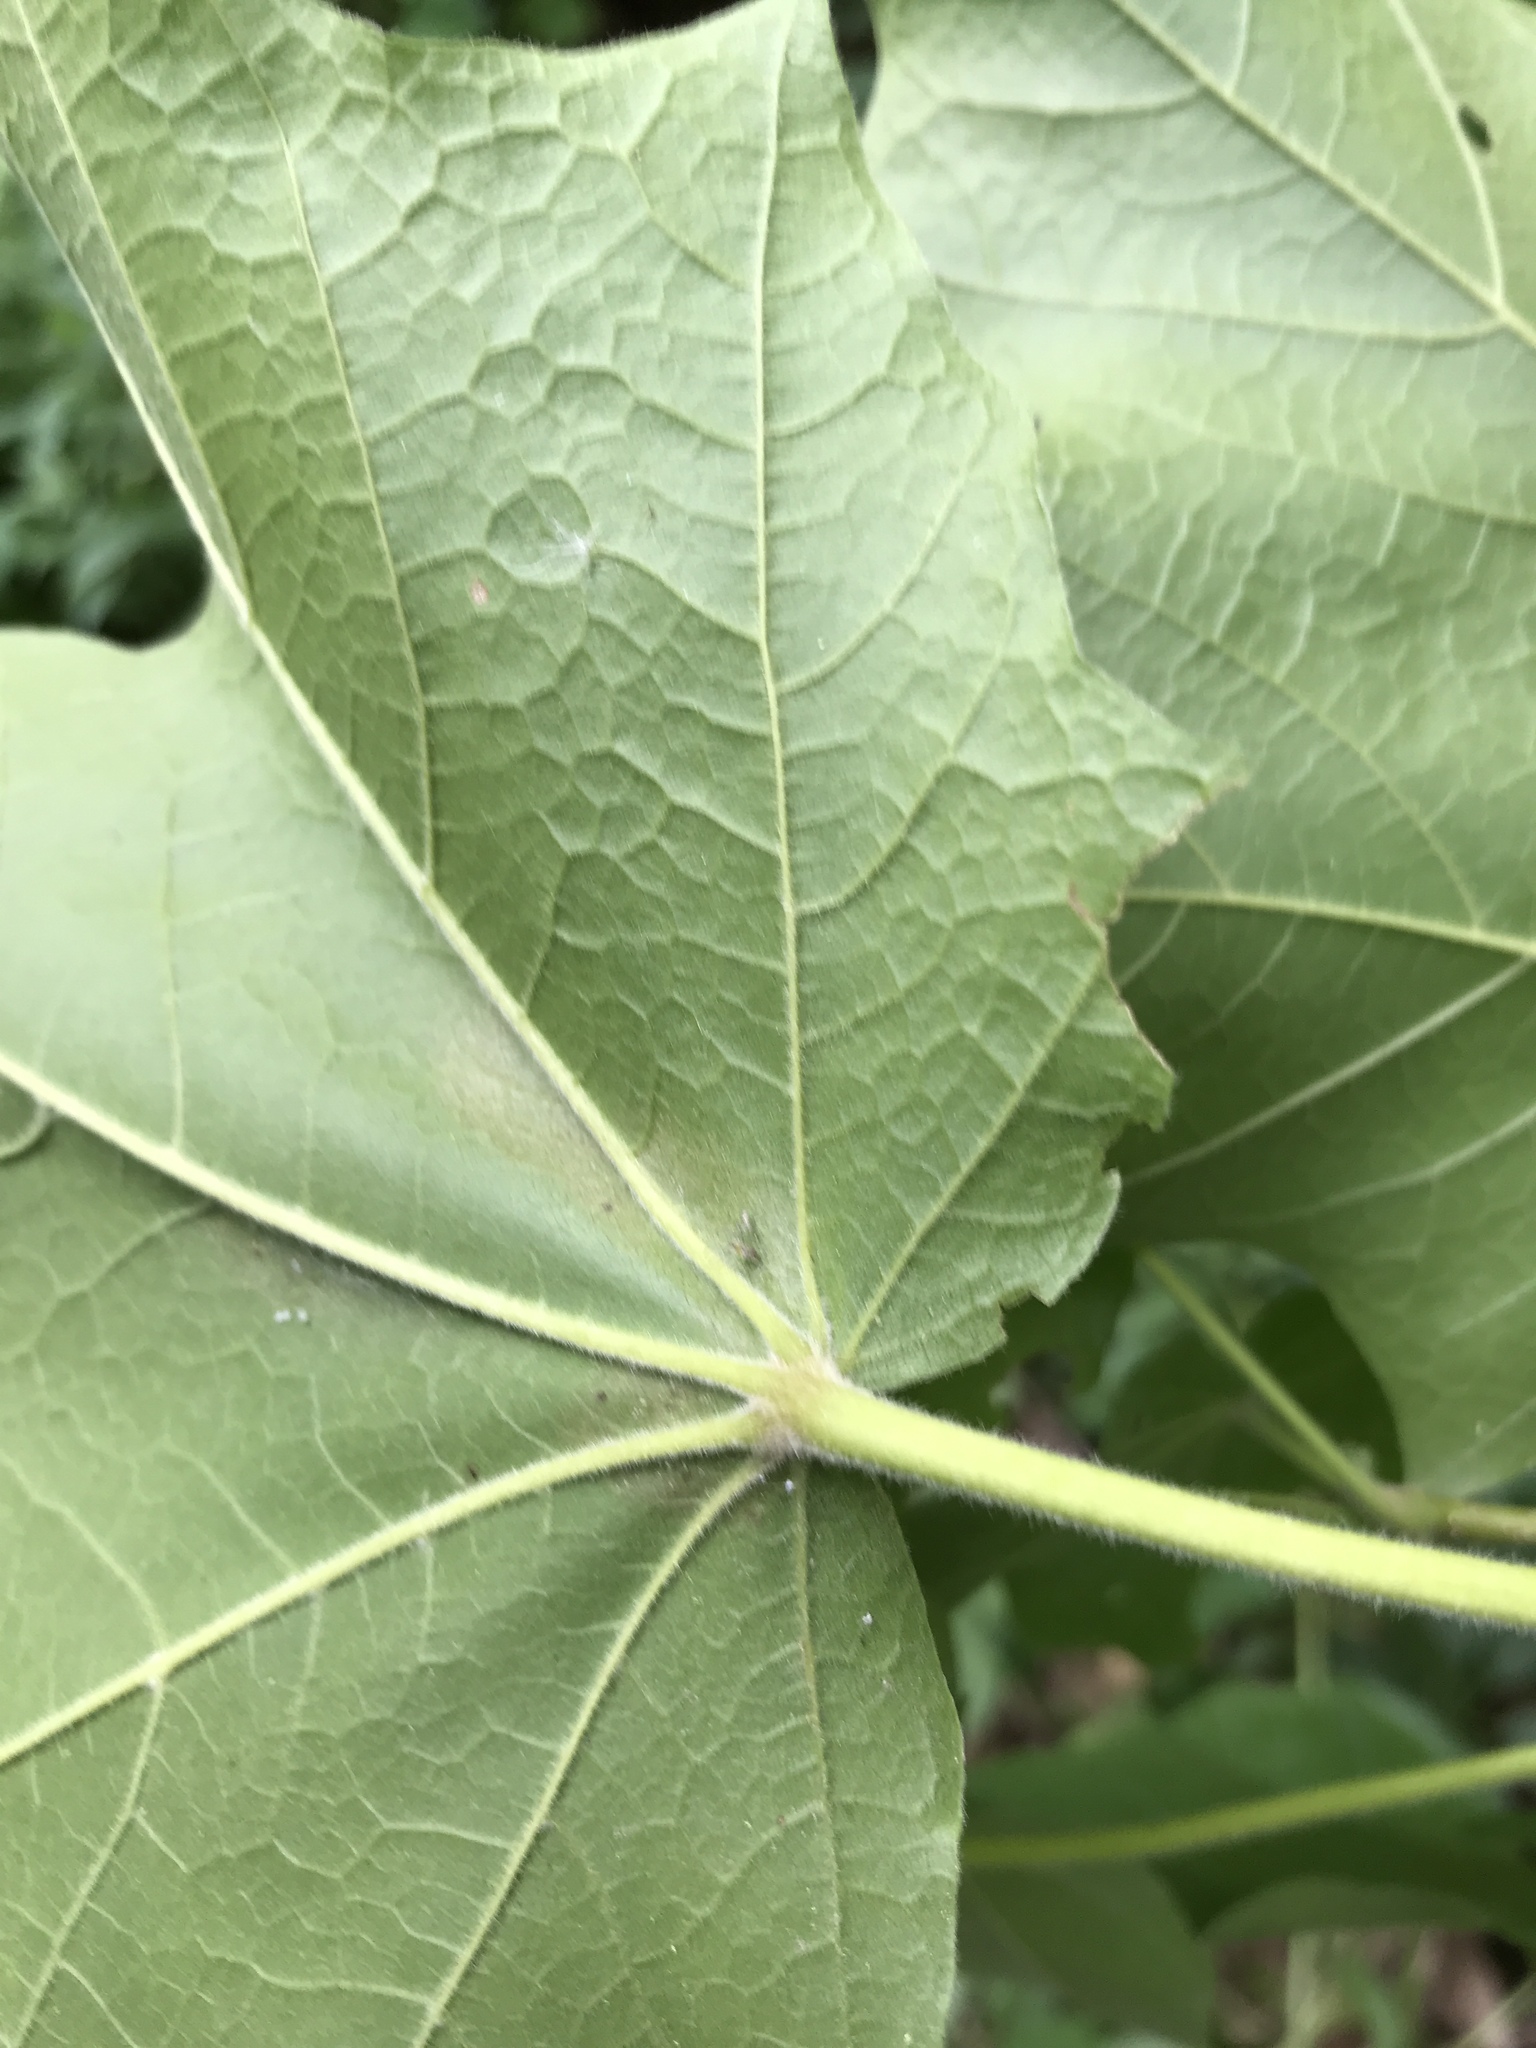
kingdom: Plantae
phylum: Tracheophyta
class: Magnoliopsida
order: Sapindales
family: Sapindaceae
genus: Acer
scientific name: Acer nigrum
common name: Black maple
